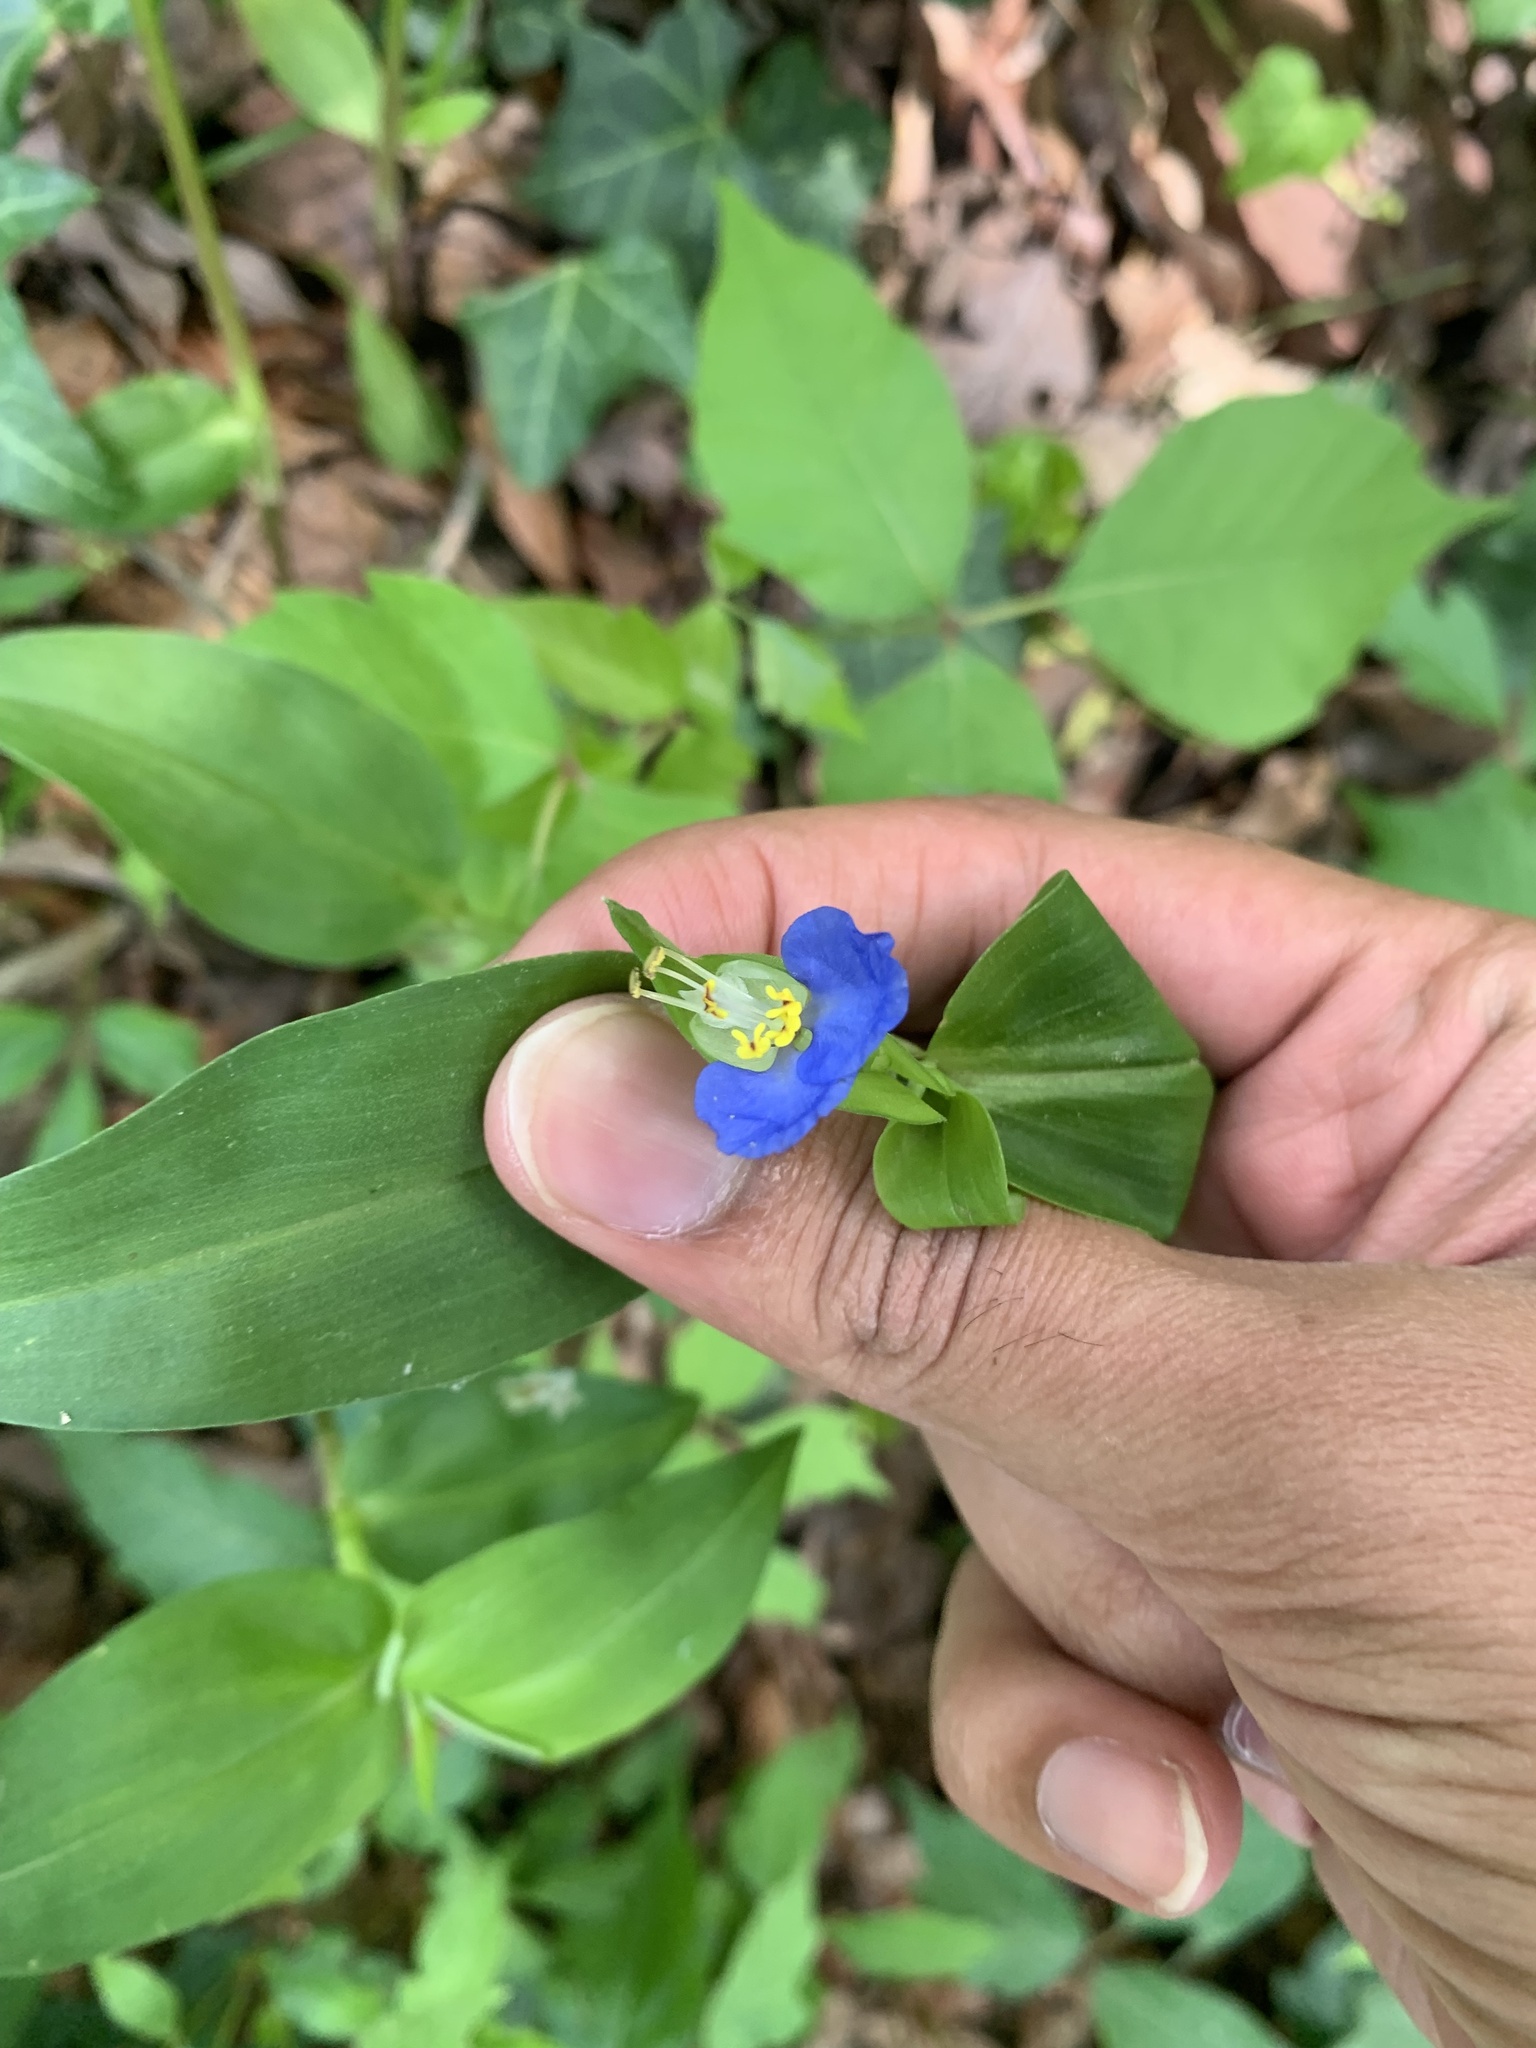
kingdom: Plantae
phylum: Tracheophyta
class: Liliopsida
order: Commelinales
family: Commelinaceae
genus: Commelina
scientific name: Commelina communis
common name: Asiatic dayflower
